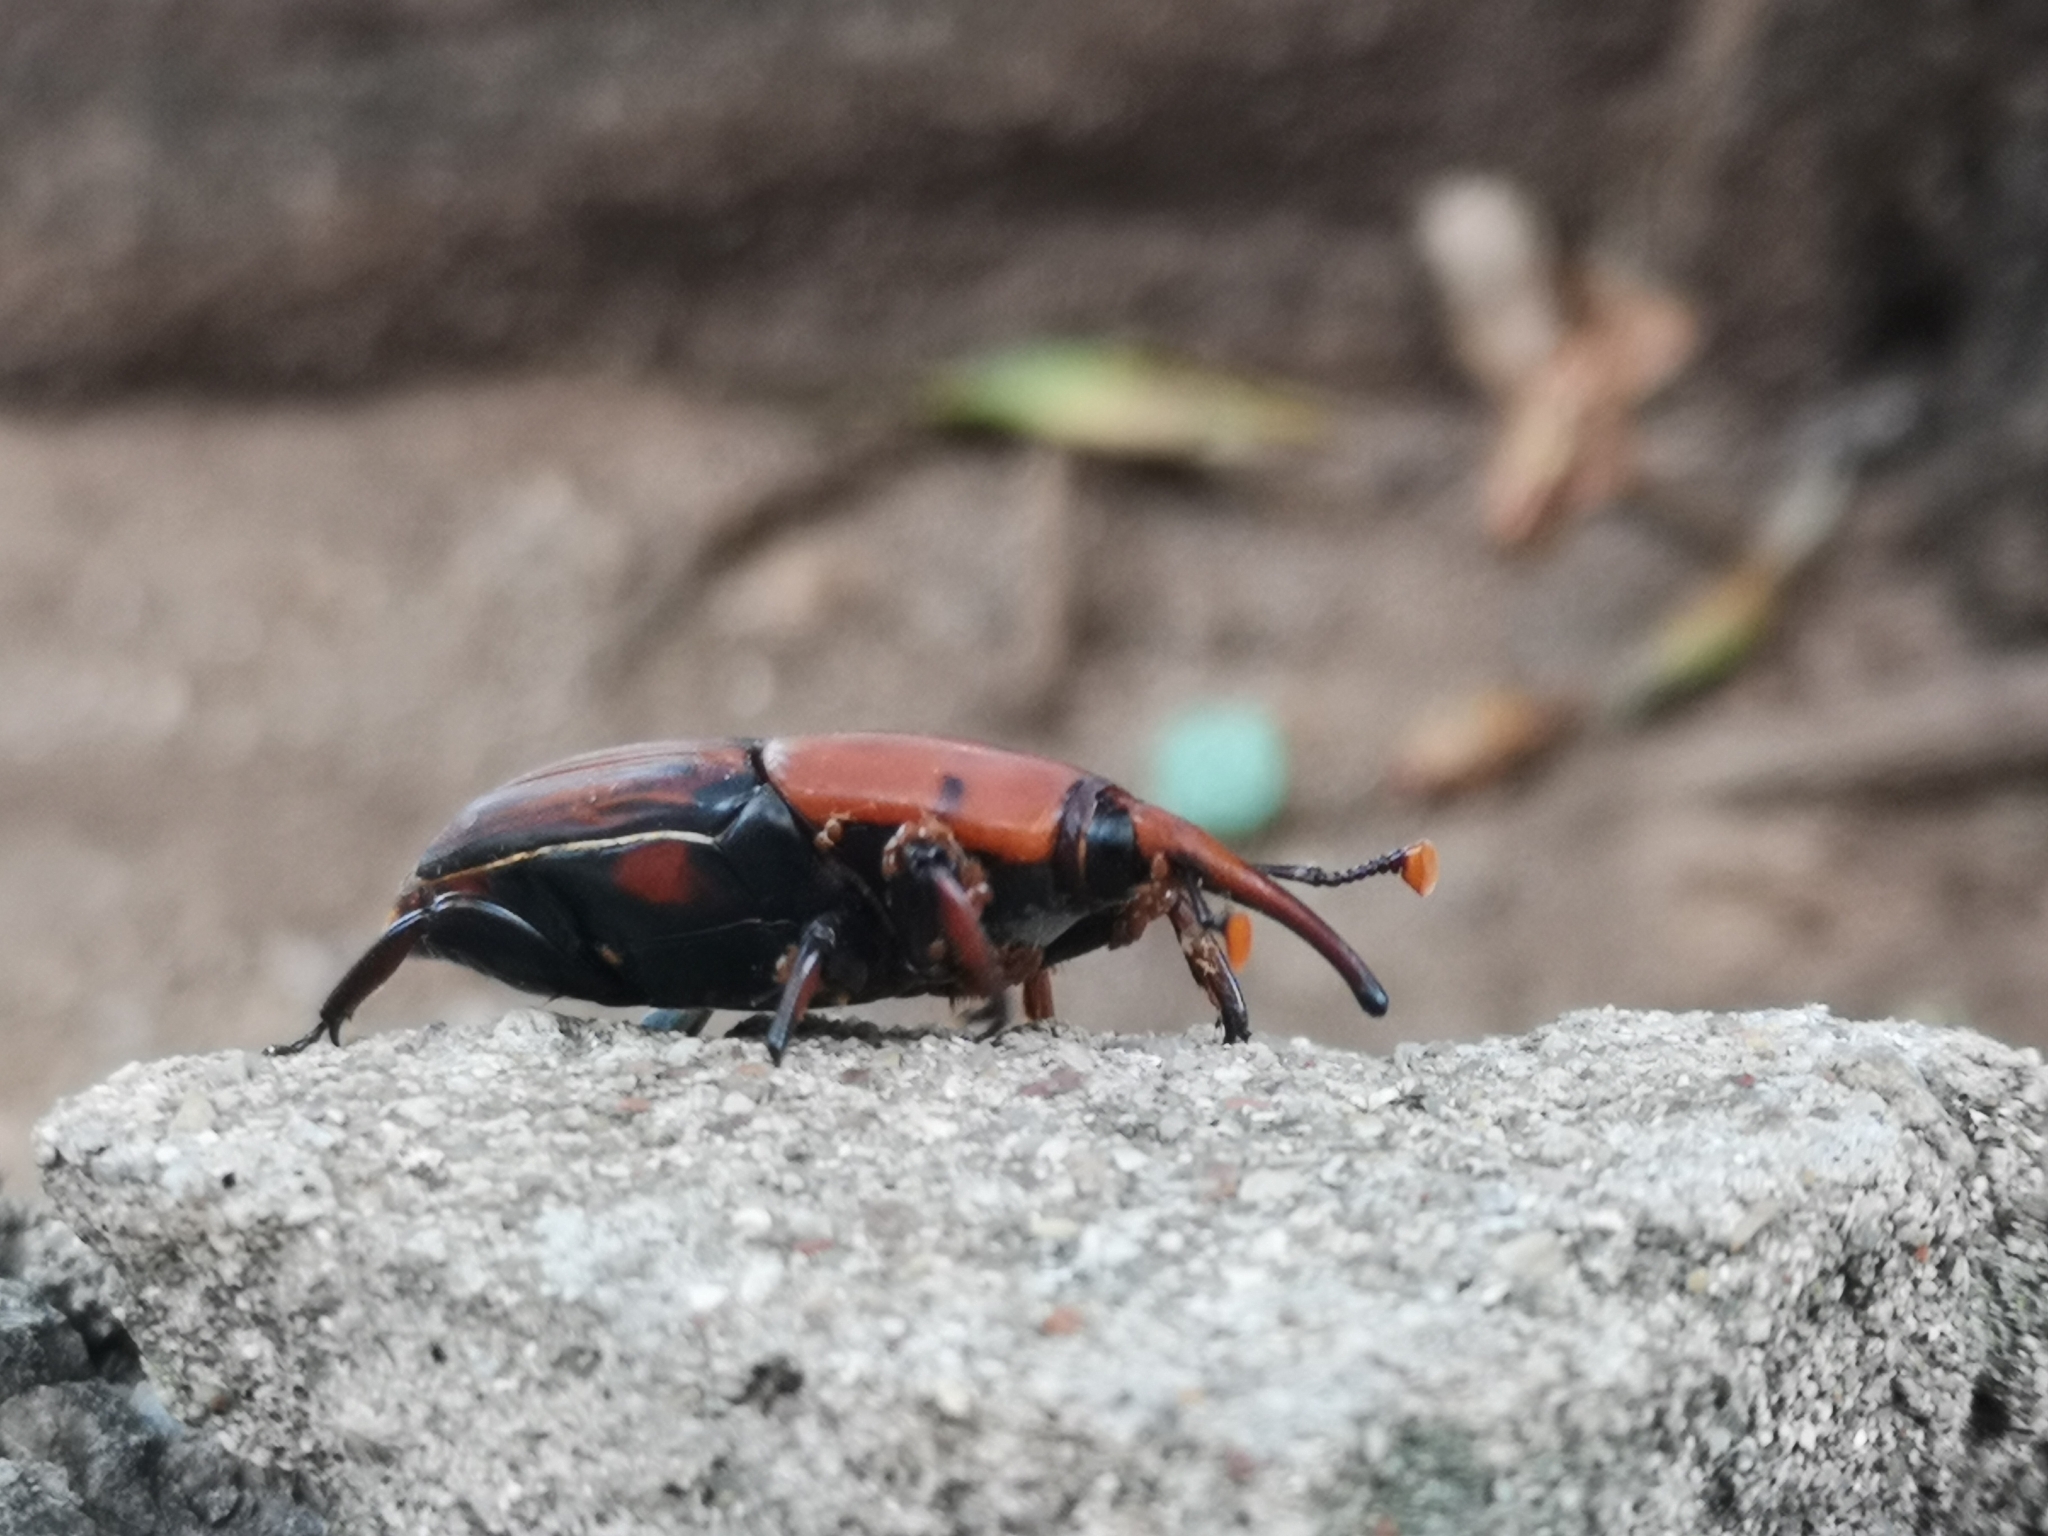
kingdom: Animalia
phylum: Arthropoda
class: Insecta
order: Coleoptera
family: Dryophthoridae
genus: Rhynchophorus
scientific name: Rhynchophorus ferrugineus
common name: Red palm weevil
